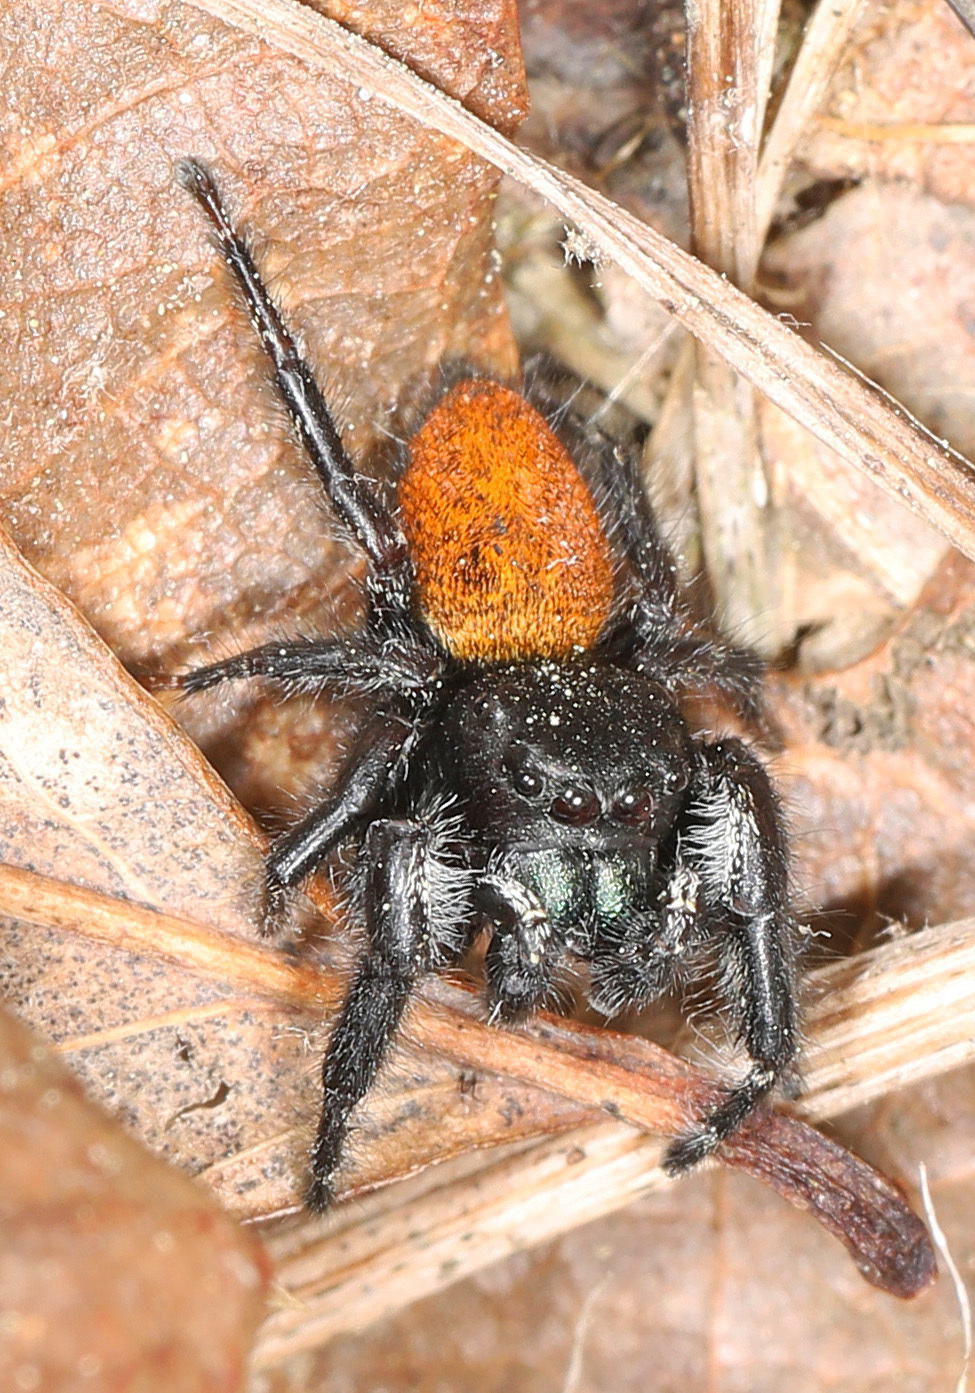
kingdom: Animalia
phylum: Arthropoda
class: Arachnida
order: Araneae
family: Salticidae
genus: Phidippus
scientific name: Phidippus princeps
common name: Grayish jumping spider
